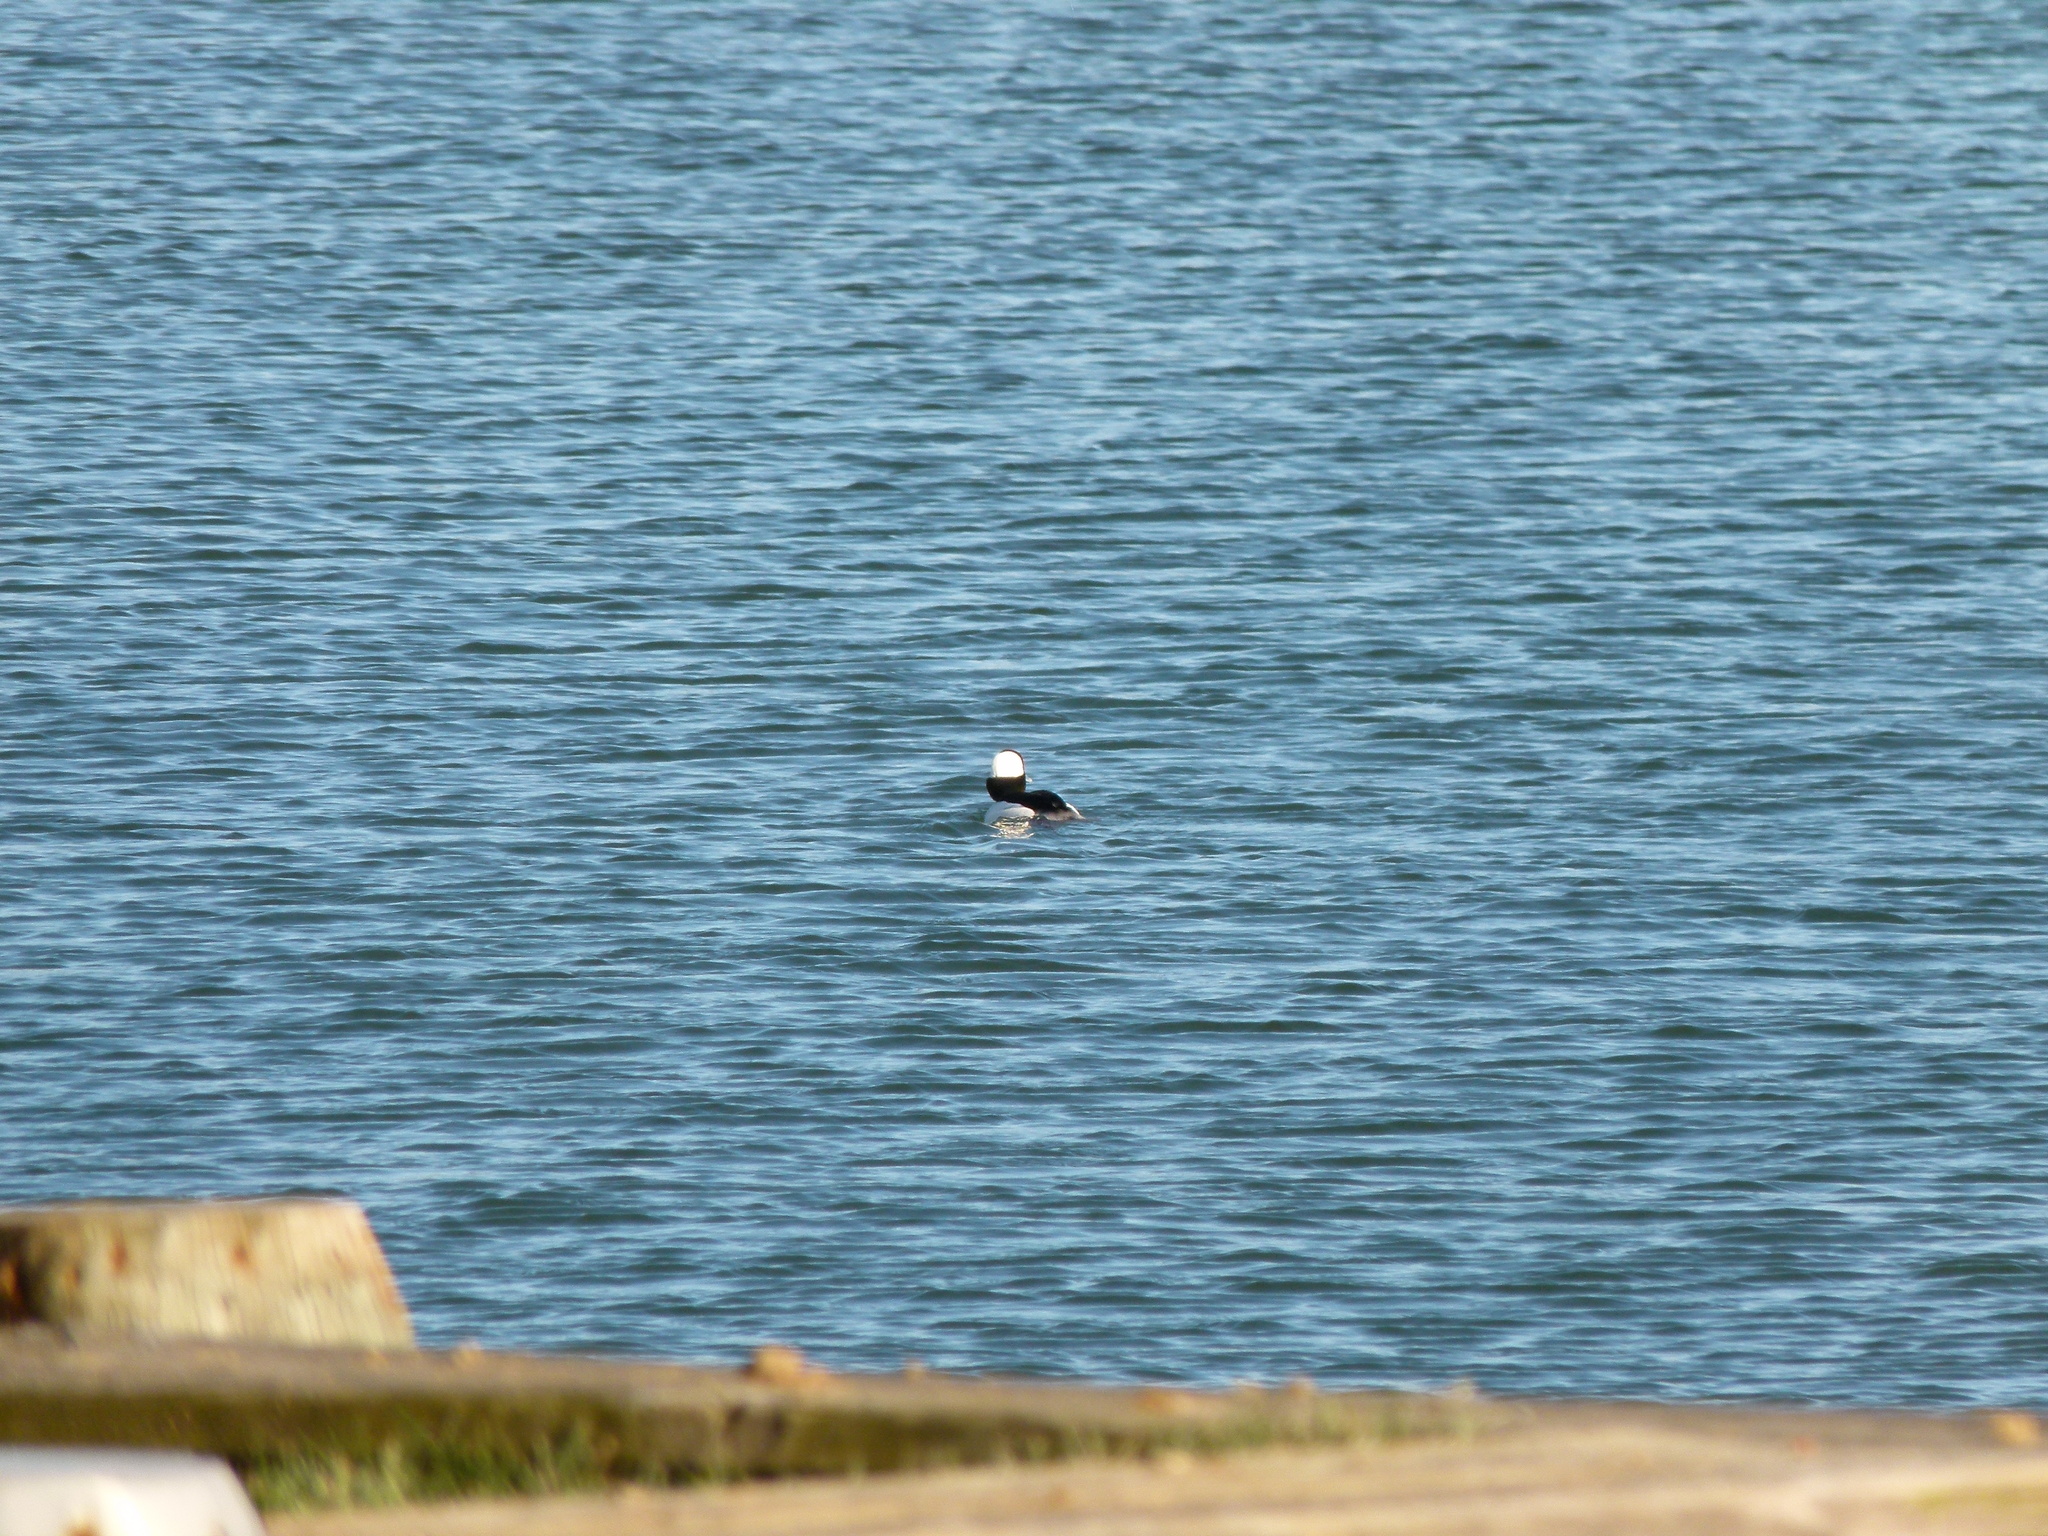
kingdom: Animalia
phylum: Chordata
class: Aves
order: Anseriformes
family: Anatidae
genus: Bucephala
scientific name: Bucephala albeola
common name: Bufflehead
